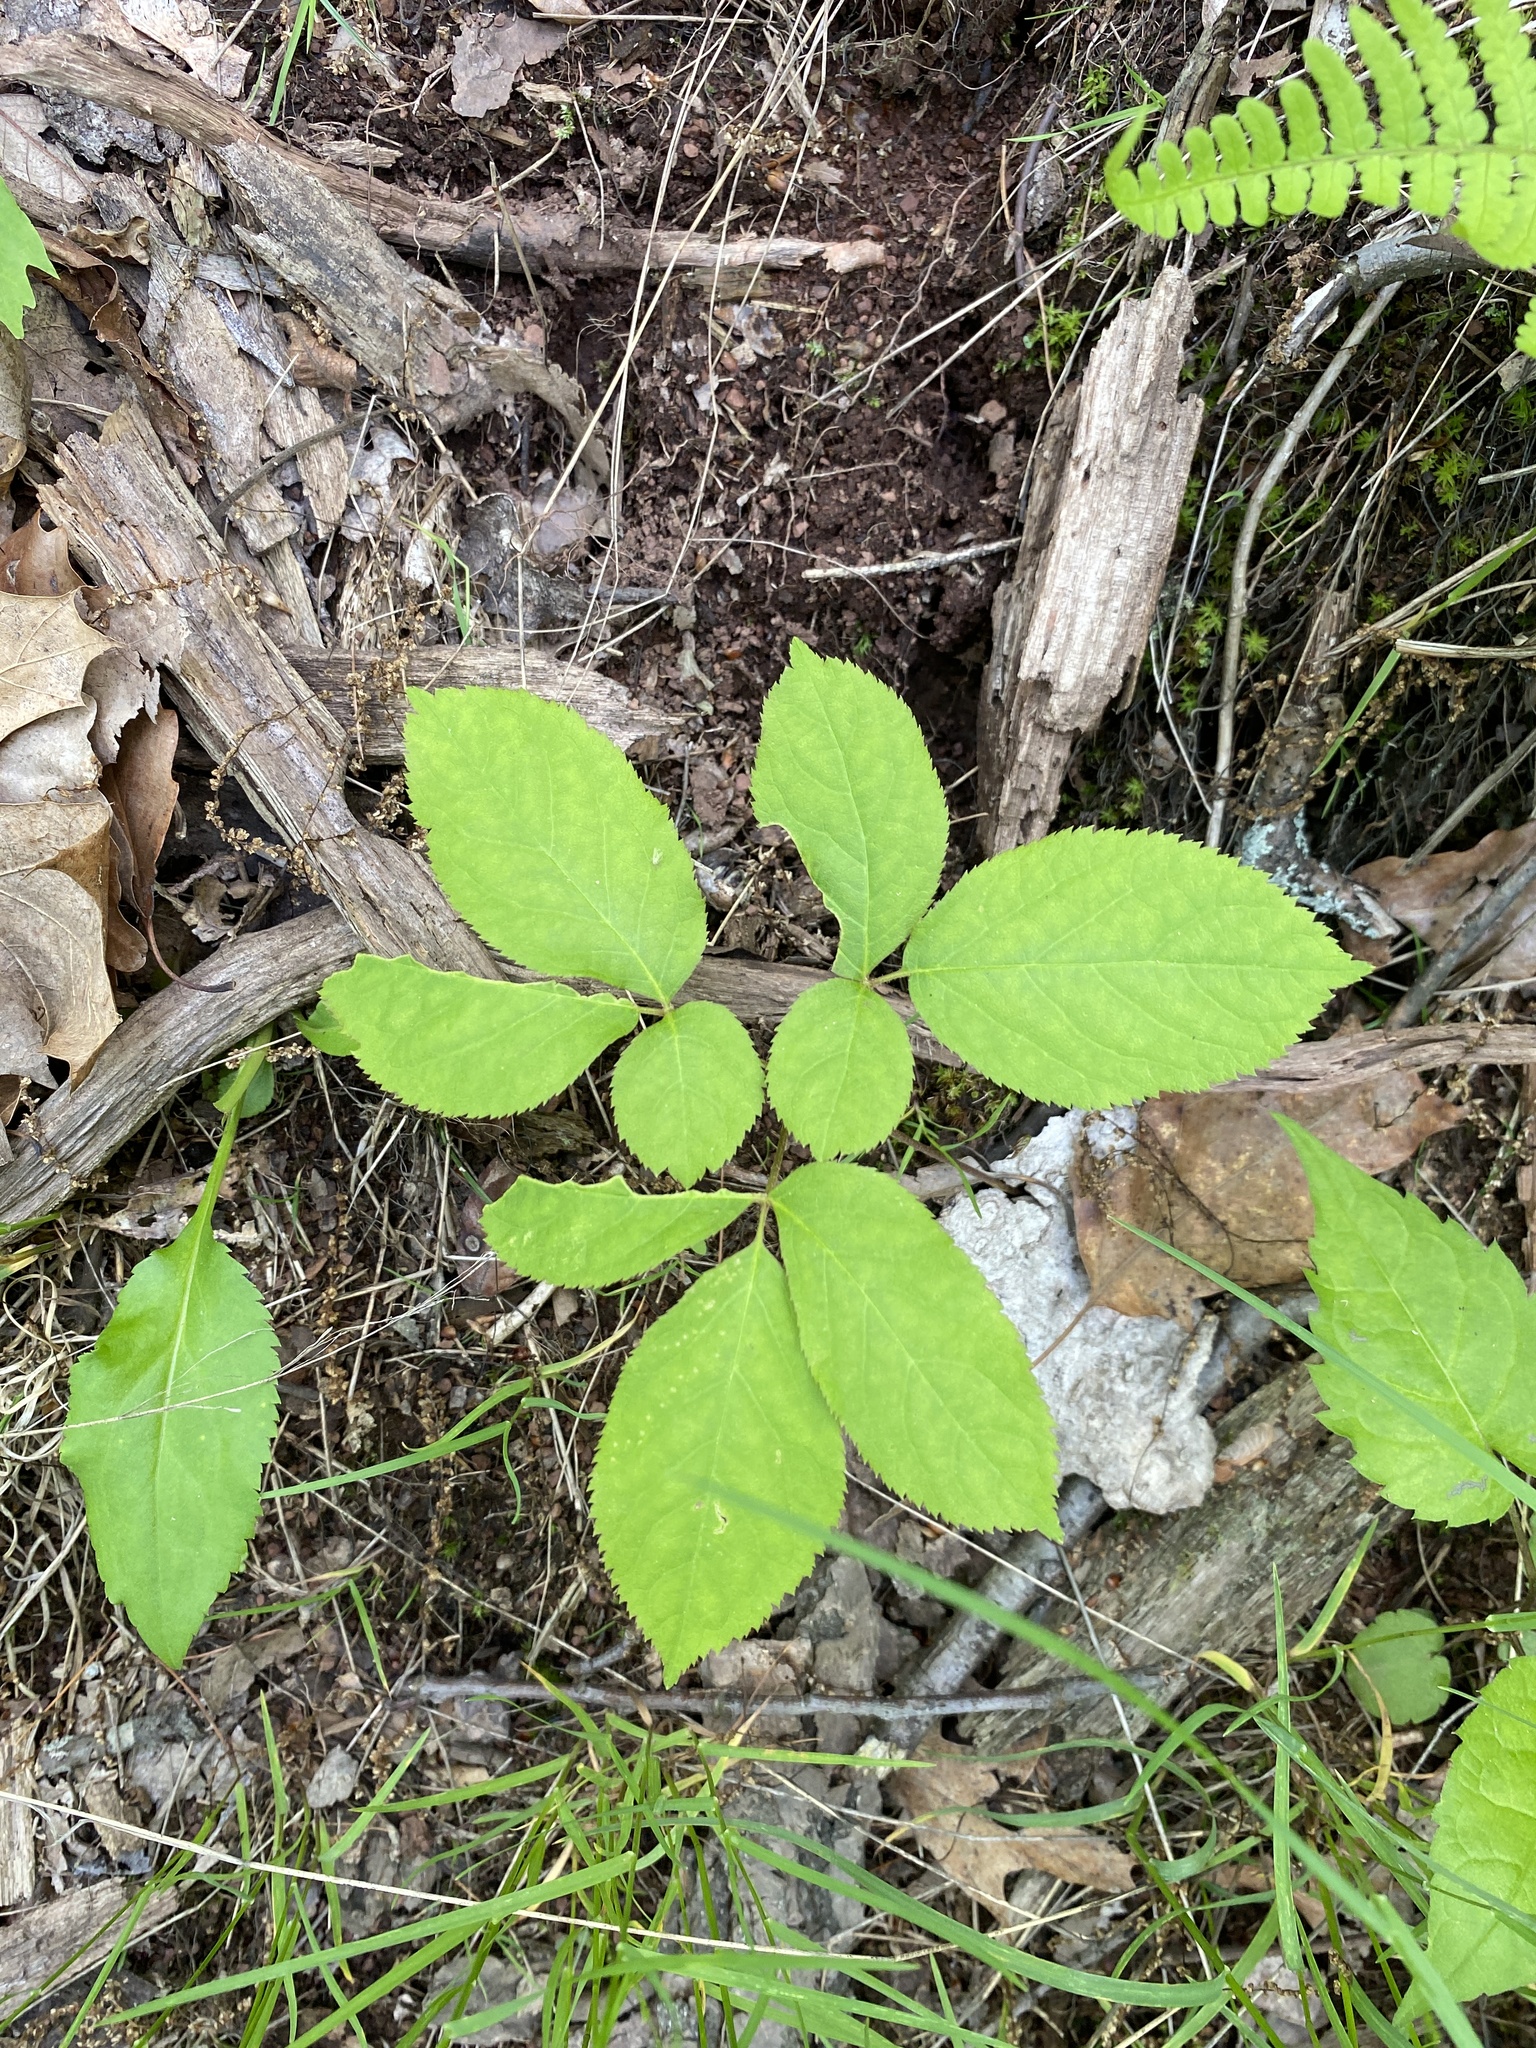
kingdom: Plantae
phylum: Tracheophyta
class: Magnoliopsida
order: Apiales
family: Araliaceae
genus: Aralia
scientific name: Aralia nudicaulis
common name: Wild sarsaparilla
